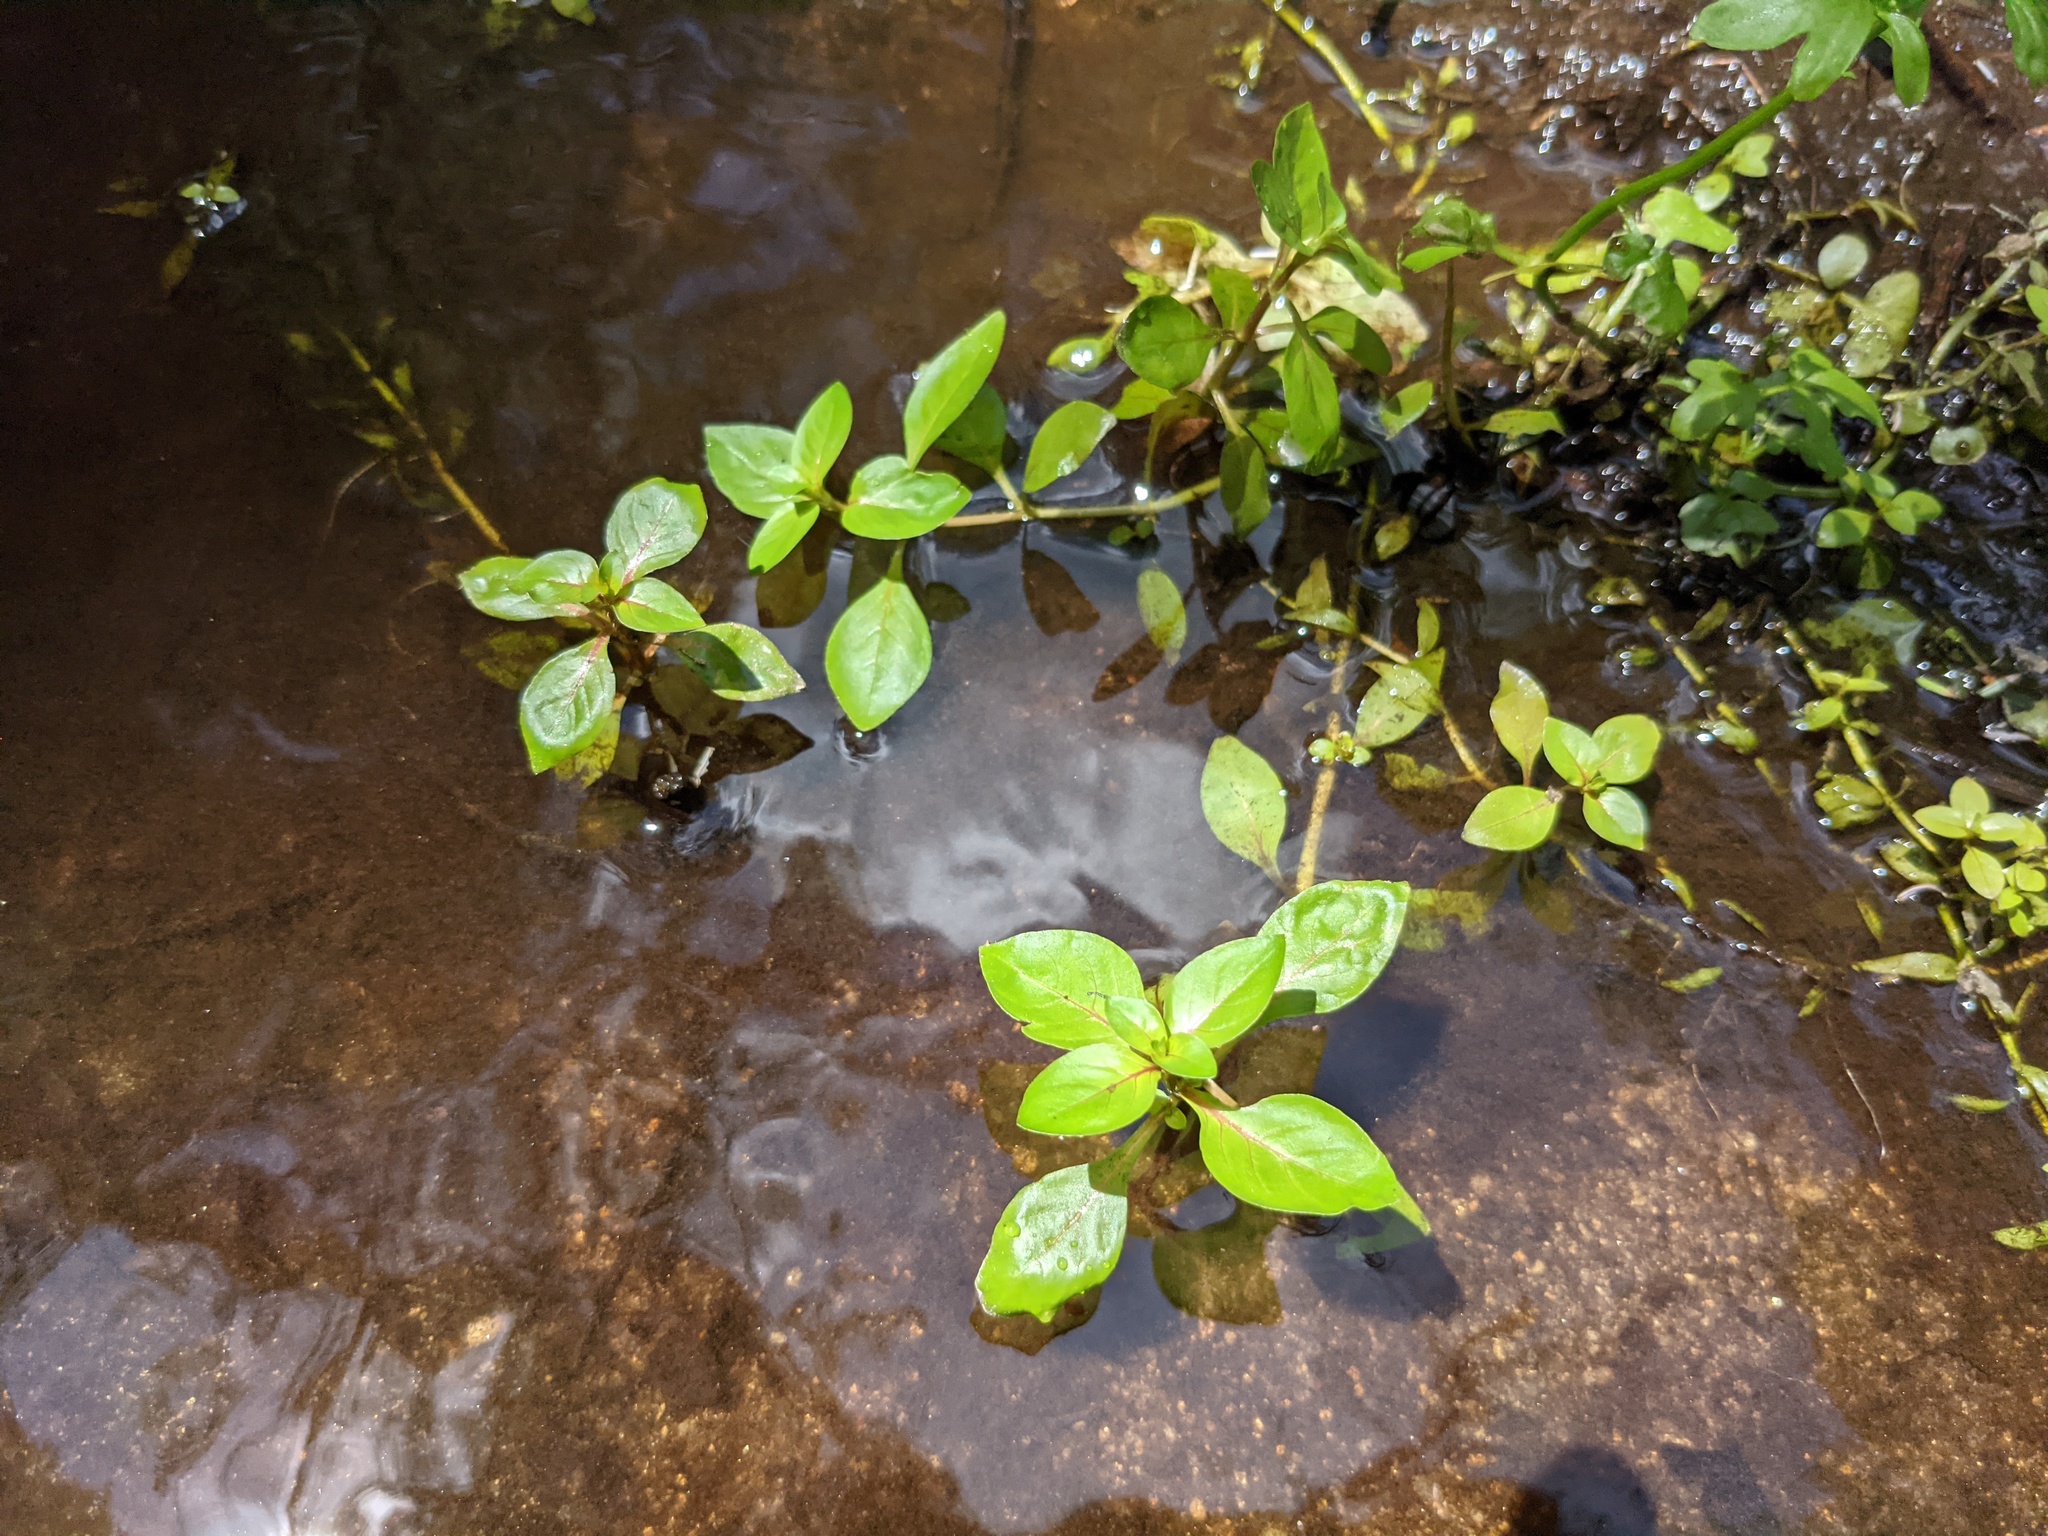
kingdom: Plantae
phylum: Tracheophyta
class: Magnoliopsida
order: Myrtales
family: Onagraceae
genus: Ludwigia
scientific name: Ludwigia palustris
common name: Hampshire-purslane
